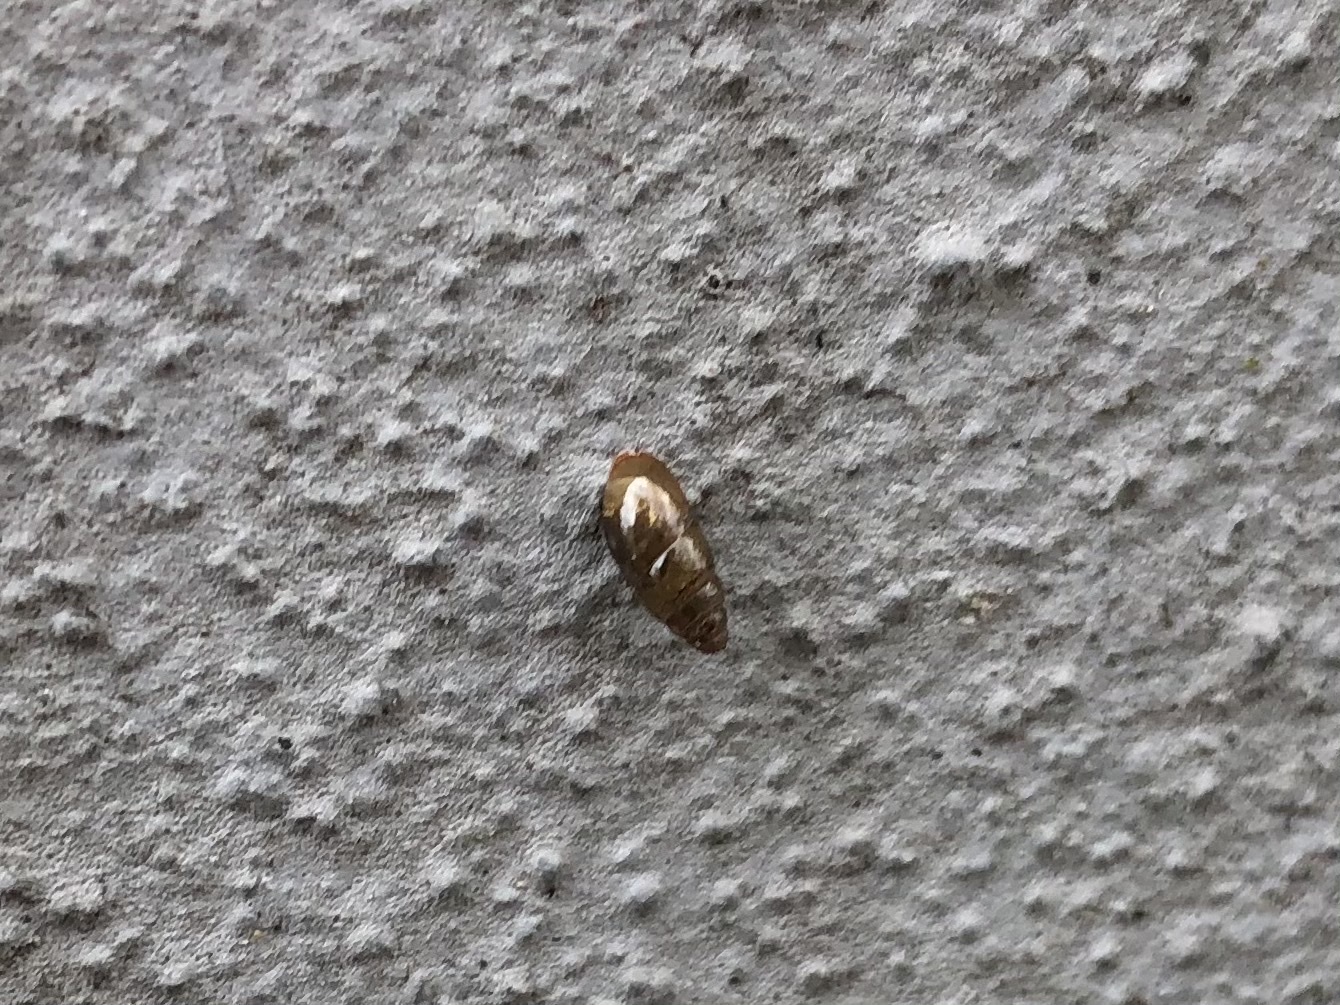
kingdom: Animalia
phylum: Mollusca
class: Gastropoda
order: Stylommatophora
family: Cochlicopidae
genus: Cochlicopa
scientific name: Cochlicopa lubrica
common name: Glossy pillar snail
